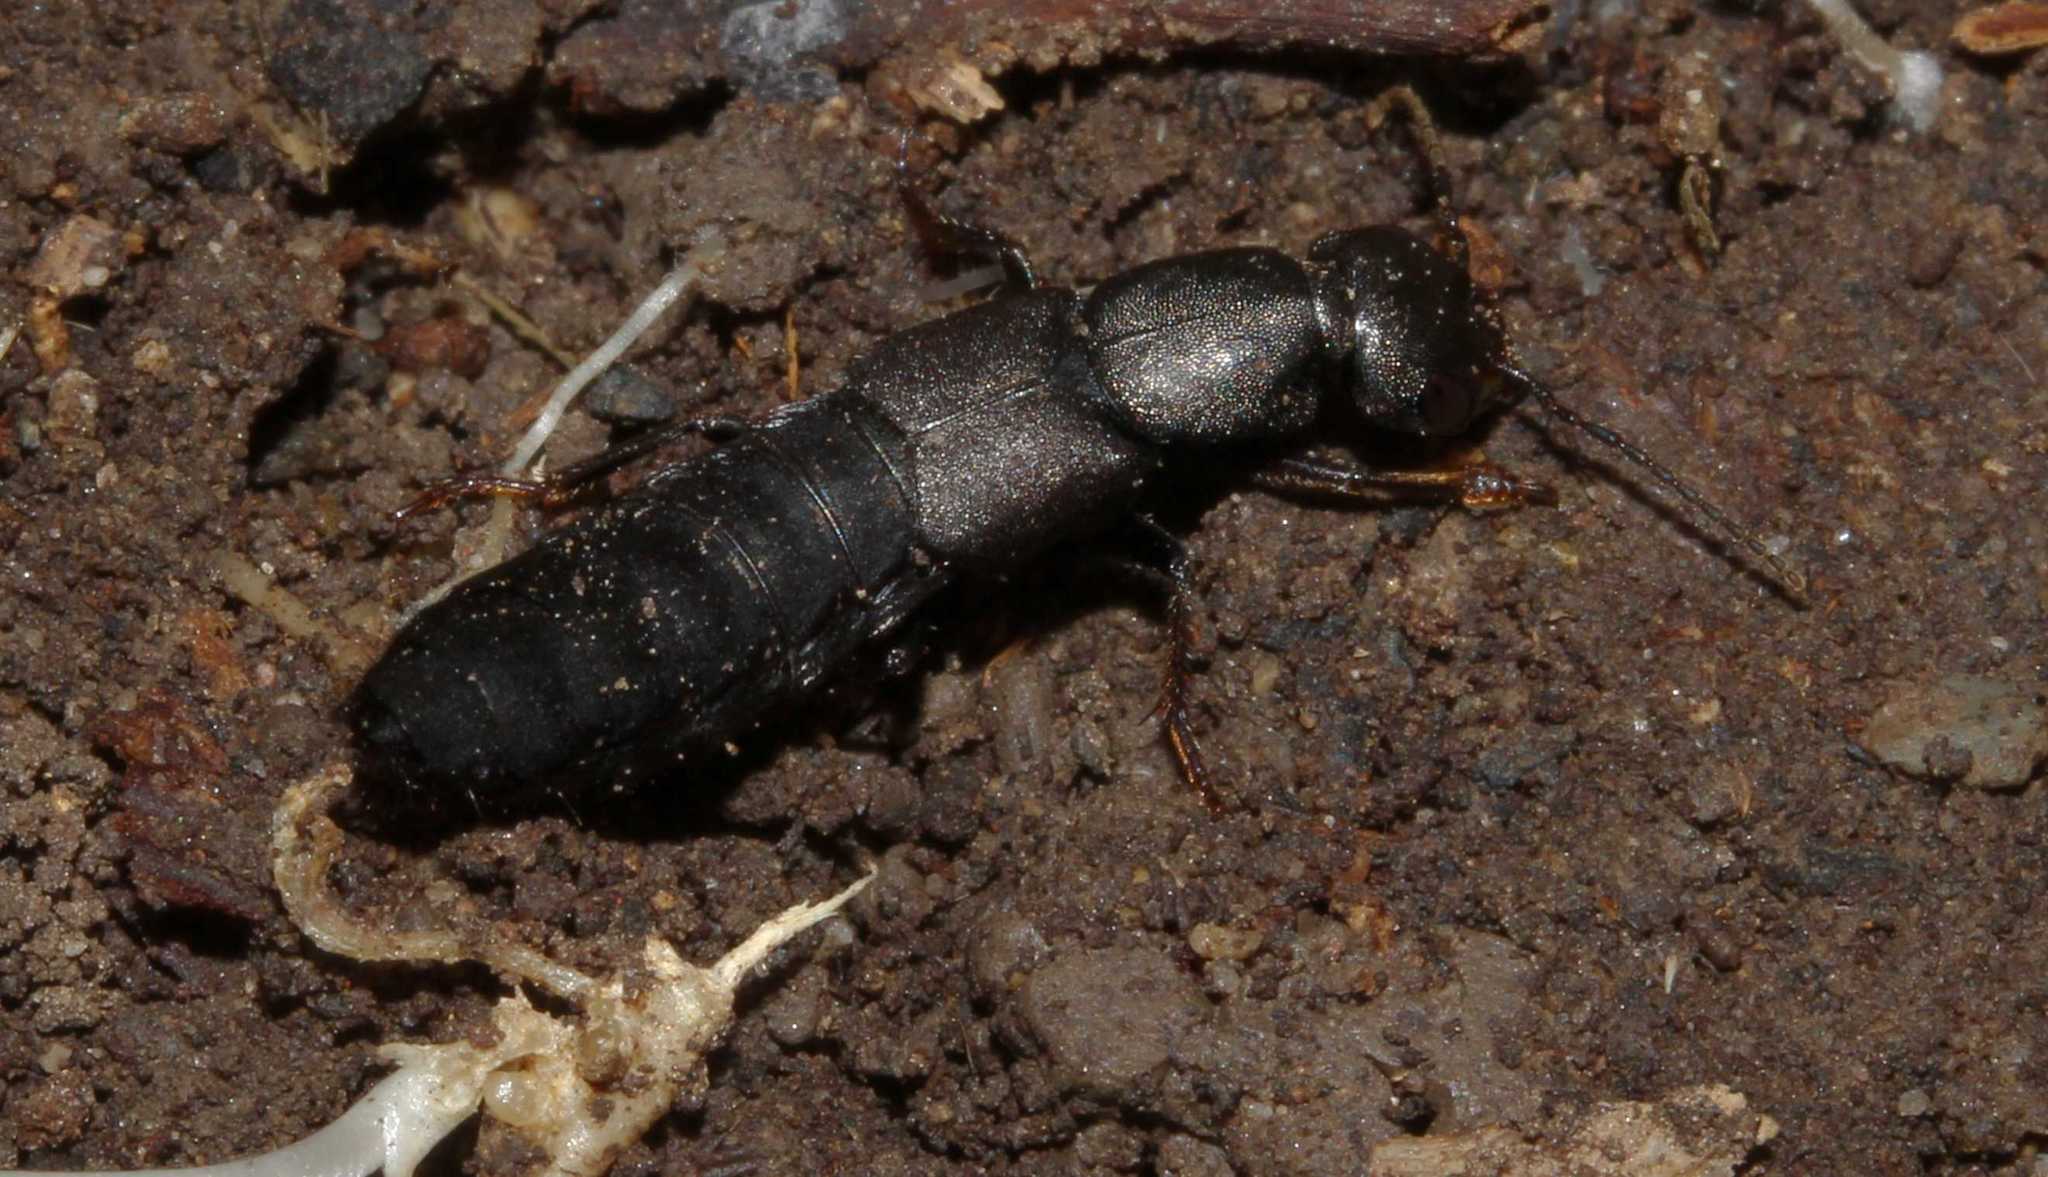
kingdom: Animalia
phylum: Arthropoda
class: Insecta
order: Coleoptera
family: Staphylinidae
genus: Ocypus
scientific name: Ocypus
